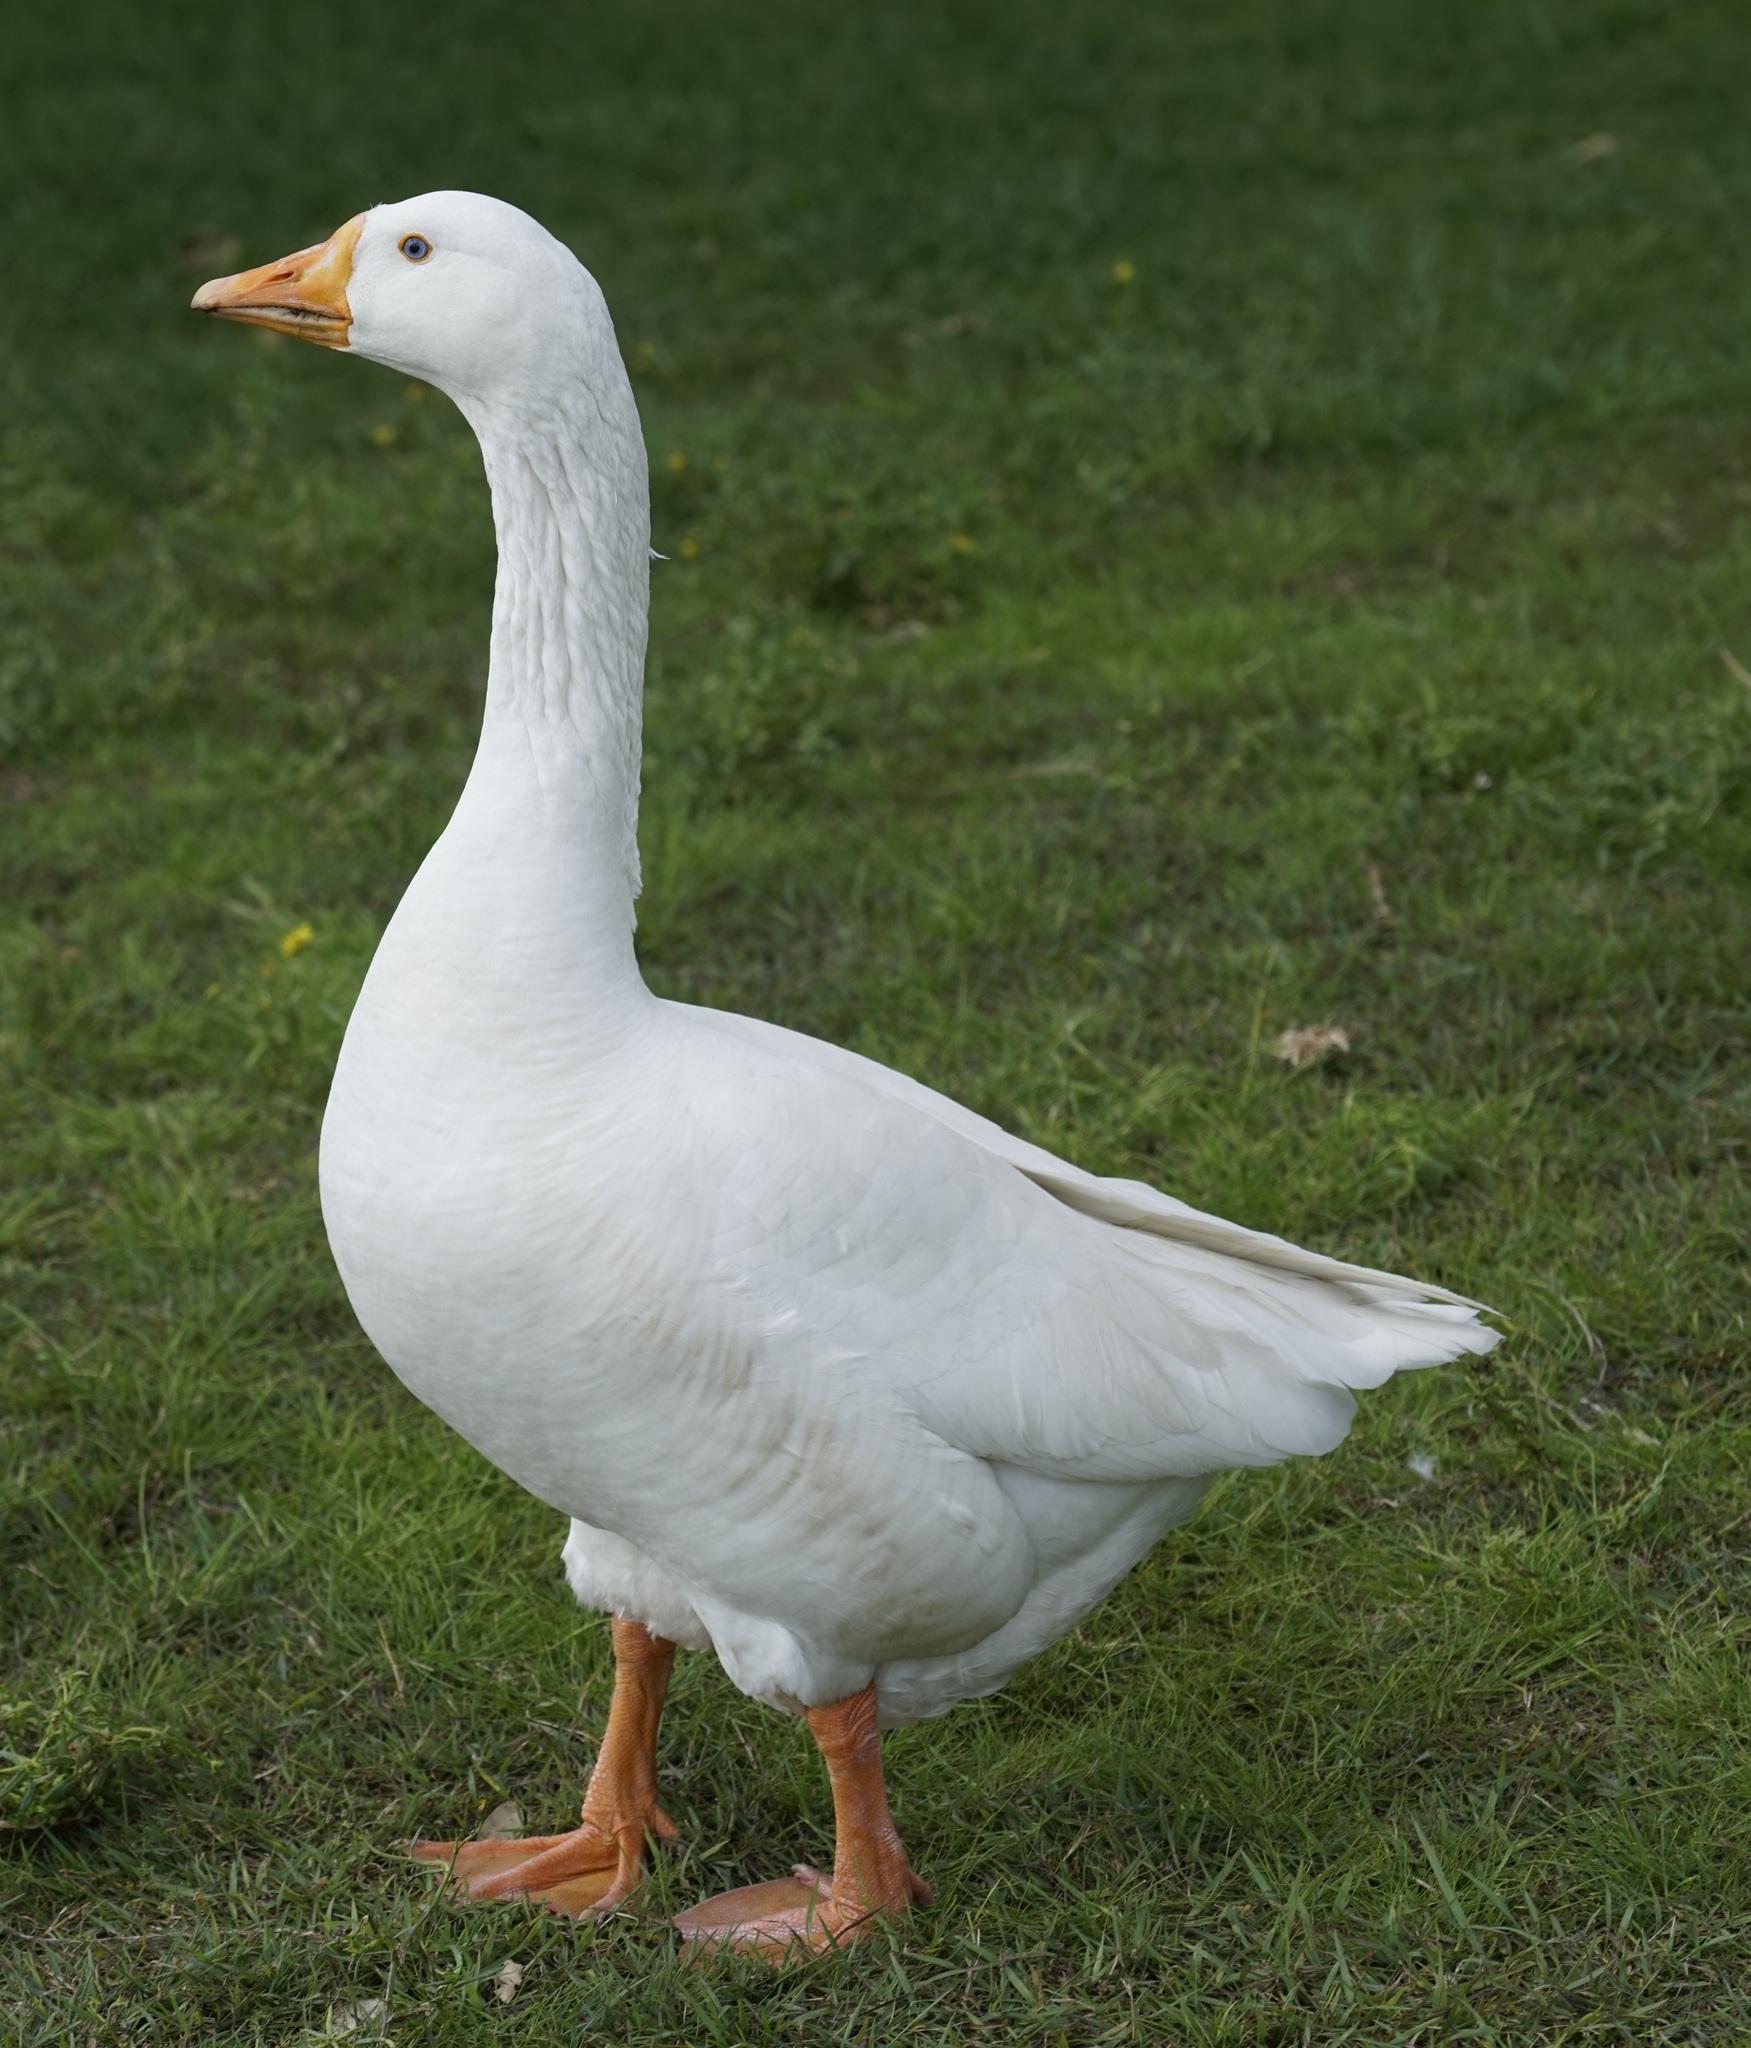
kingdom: Animalia
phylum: Chordata
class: Aves
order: Anseriformes
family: Anatidae
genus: Anser
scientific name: Anser
